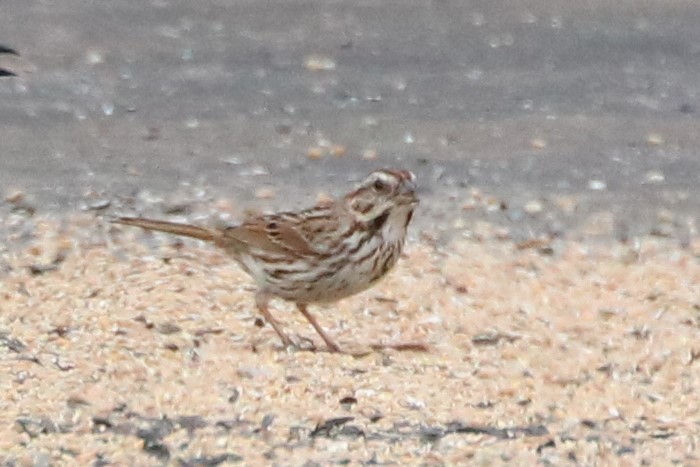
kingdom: Animalia
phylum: Chordata
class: Aves
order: Passeriformes
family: Passerellidae
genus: Melospiza
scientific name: Melospiza melodia
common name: Song sparrow
